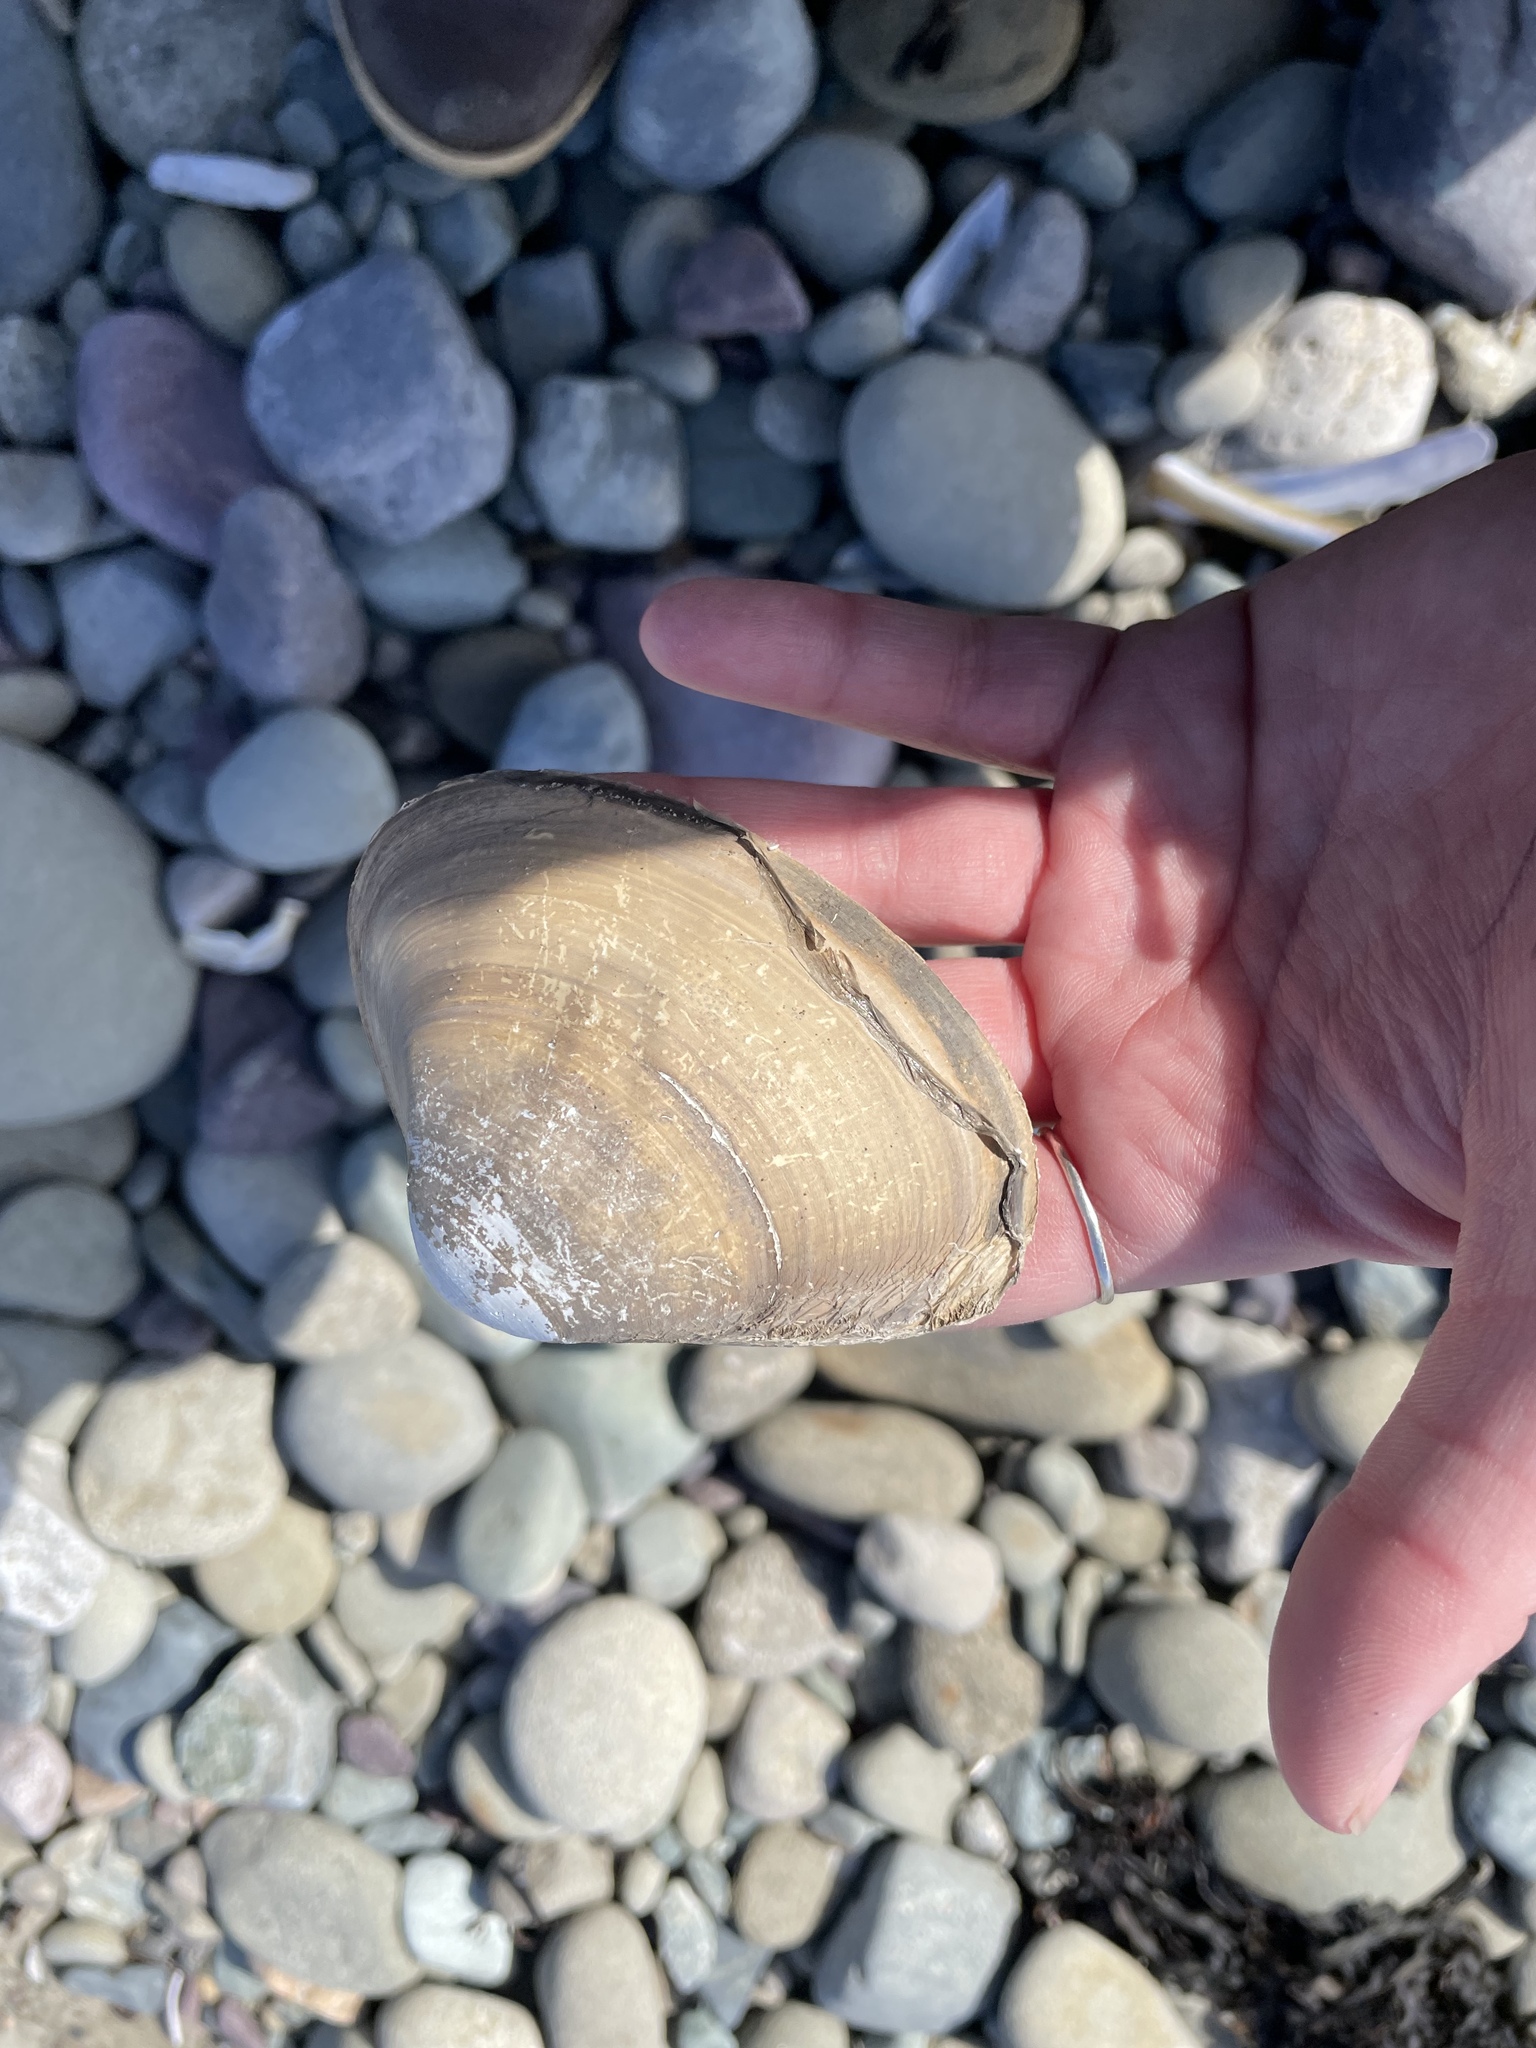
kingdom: Animalia
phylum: Mollusca
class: Bivalvia
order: Venerida
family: Mactridae
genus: Spisula
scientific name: Spisula solidissima
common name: Atlantic surf clam
